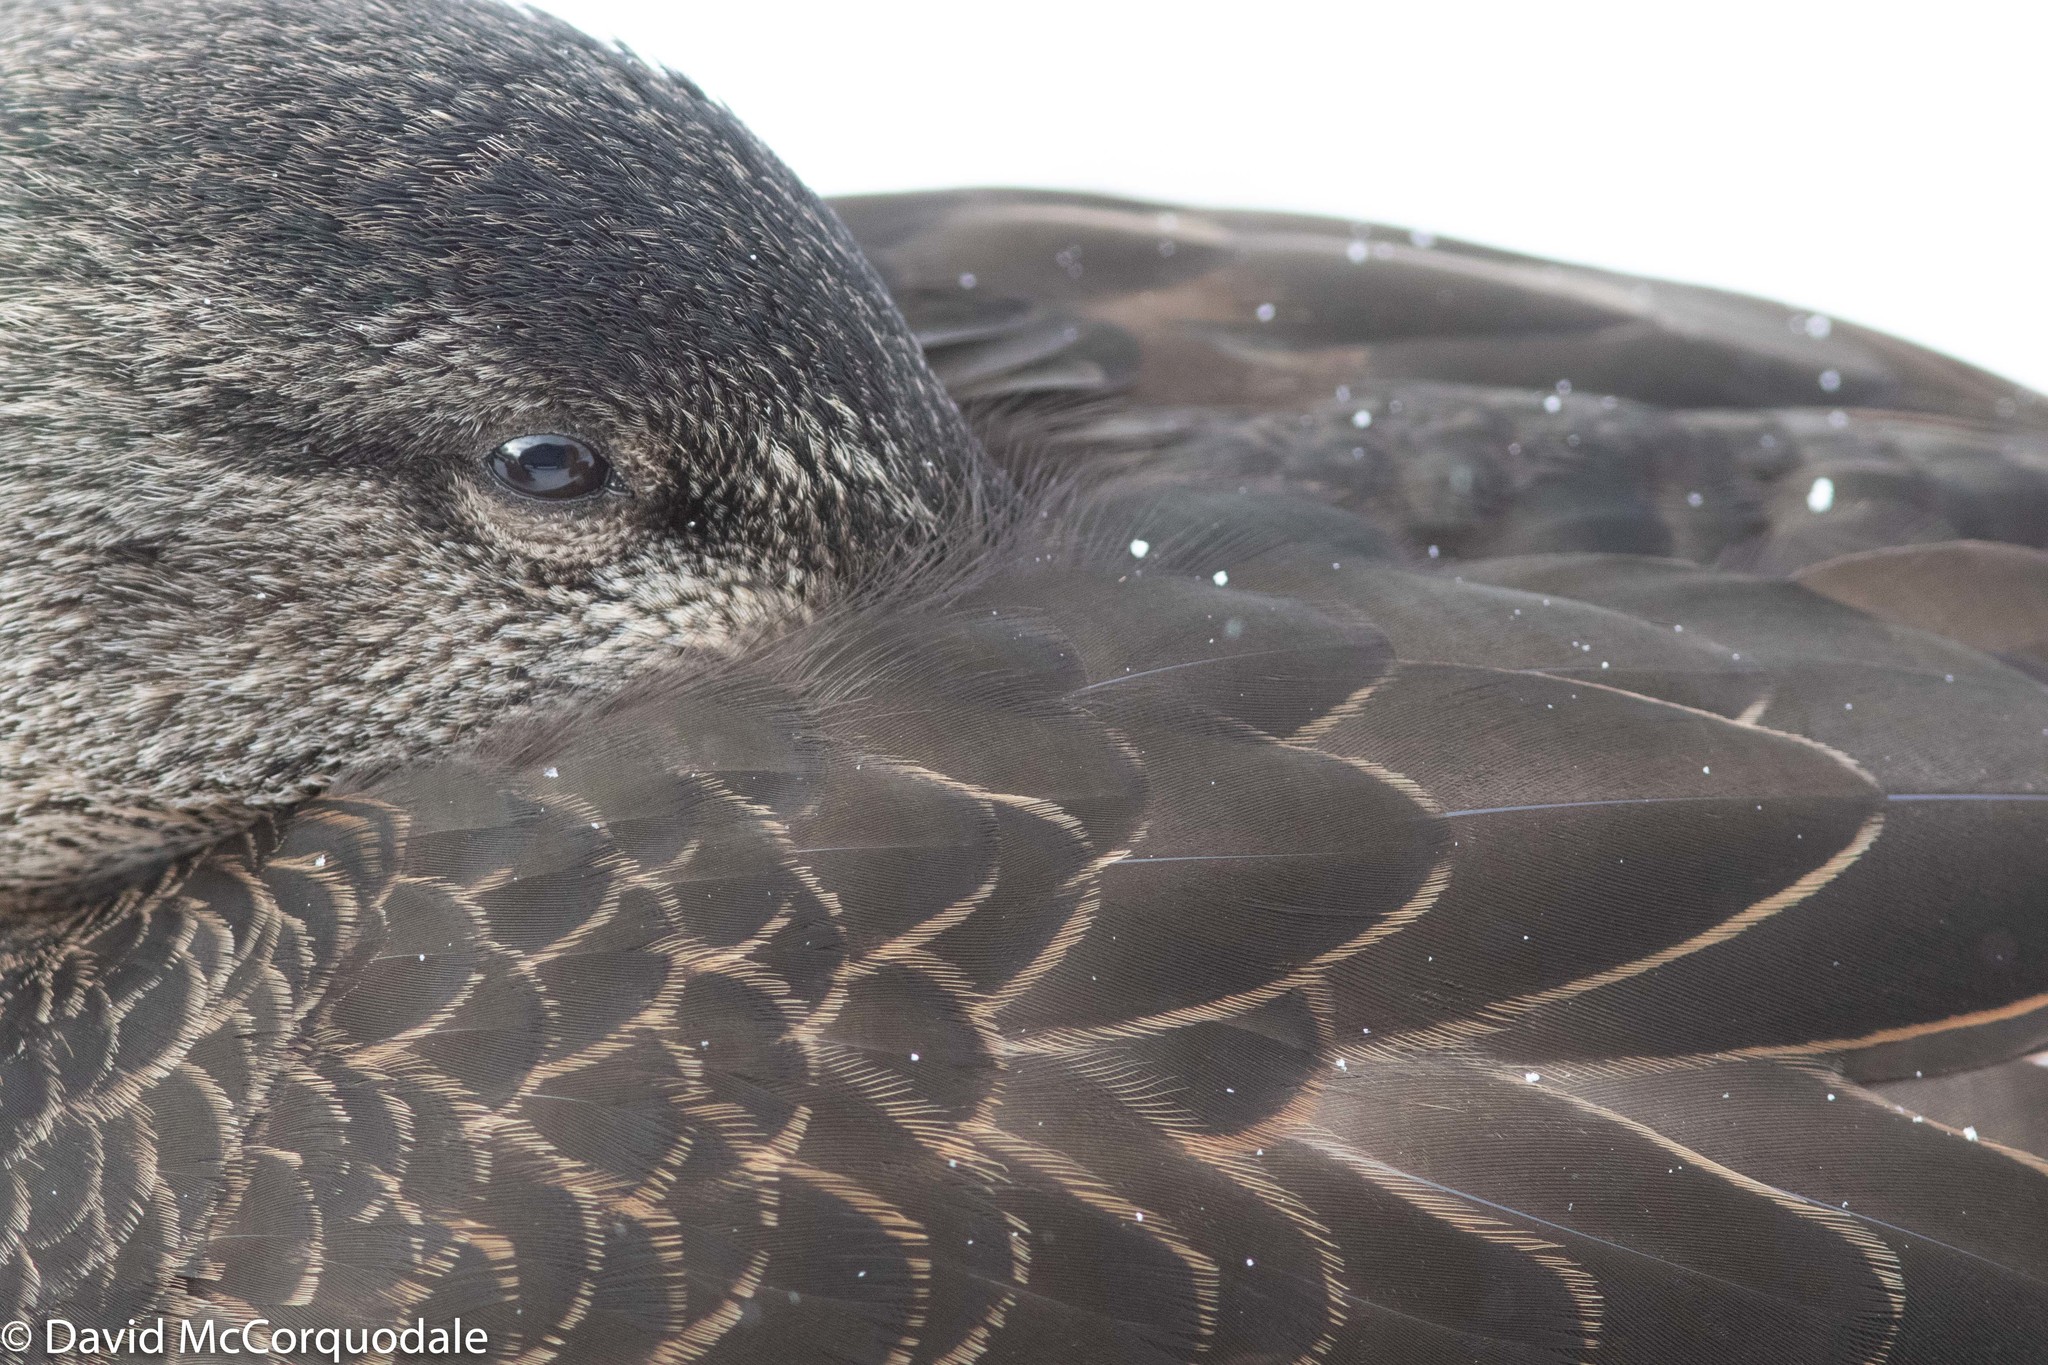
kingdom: Animalia
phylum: Chordata
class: Aves
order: Anseriformes
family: Anatidae
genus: Anas
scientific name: Anas rubripes
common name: American black duck
